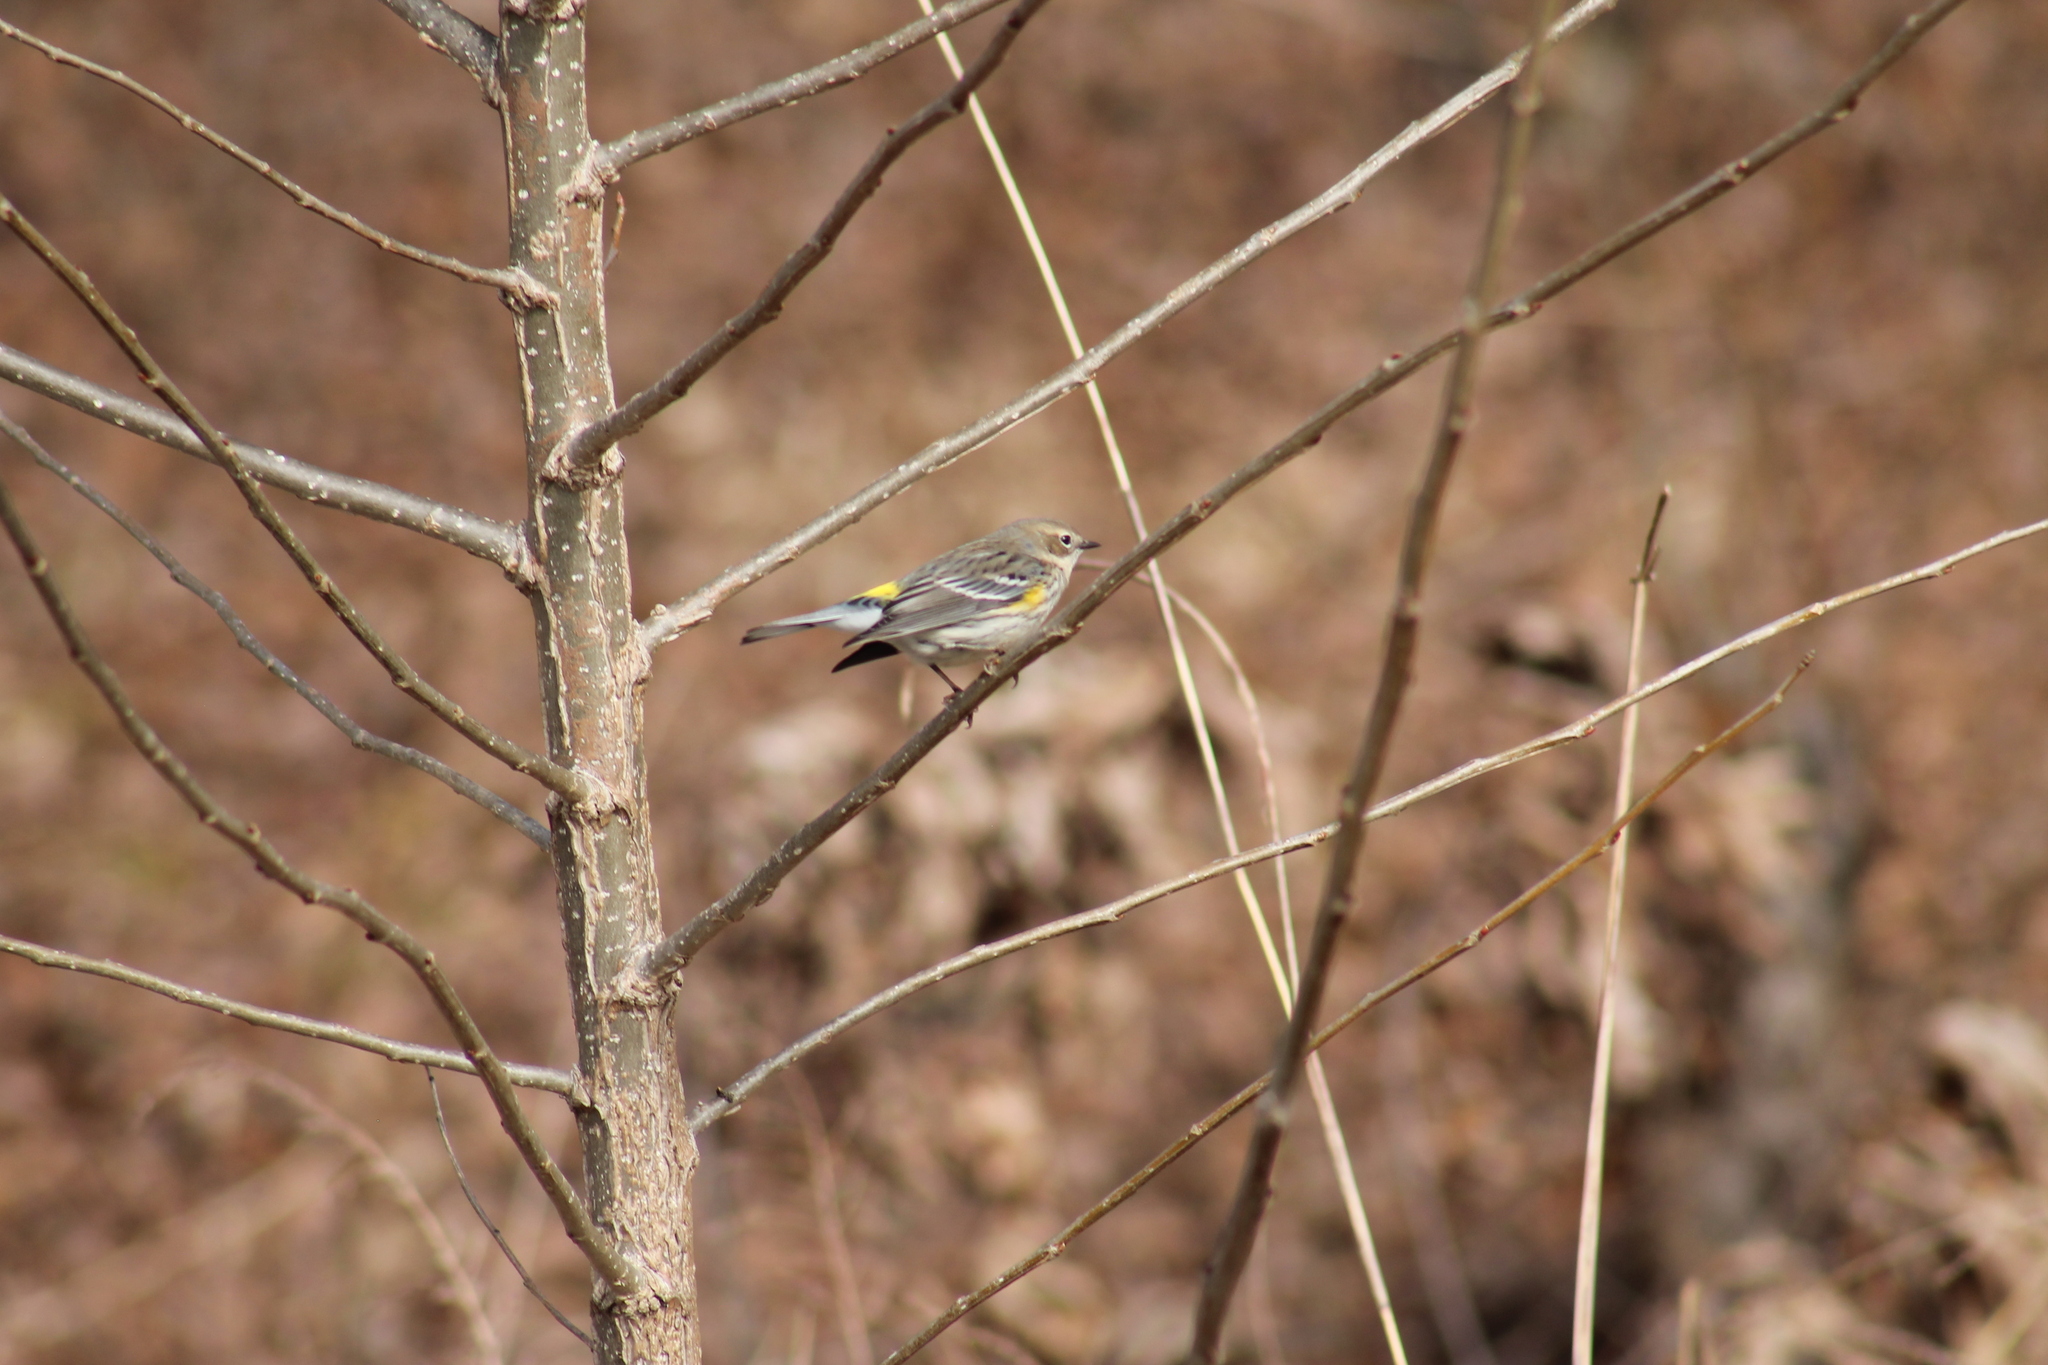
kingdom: Animalia
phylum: Chordata
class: Aves
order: Passeriformes
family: Parulidae
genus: Setophaga
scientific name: Setophaga coronata
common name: Myrtle warbler
